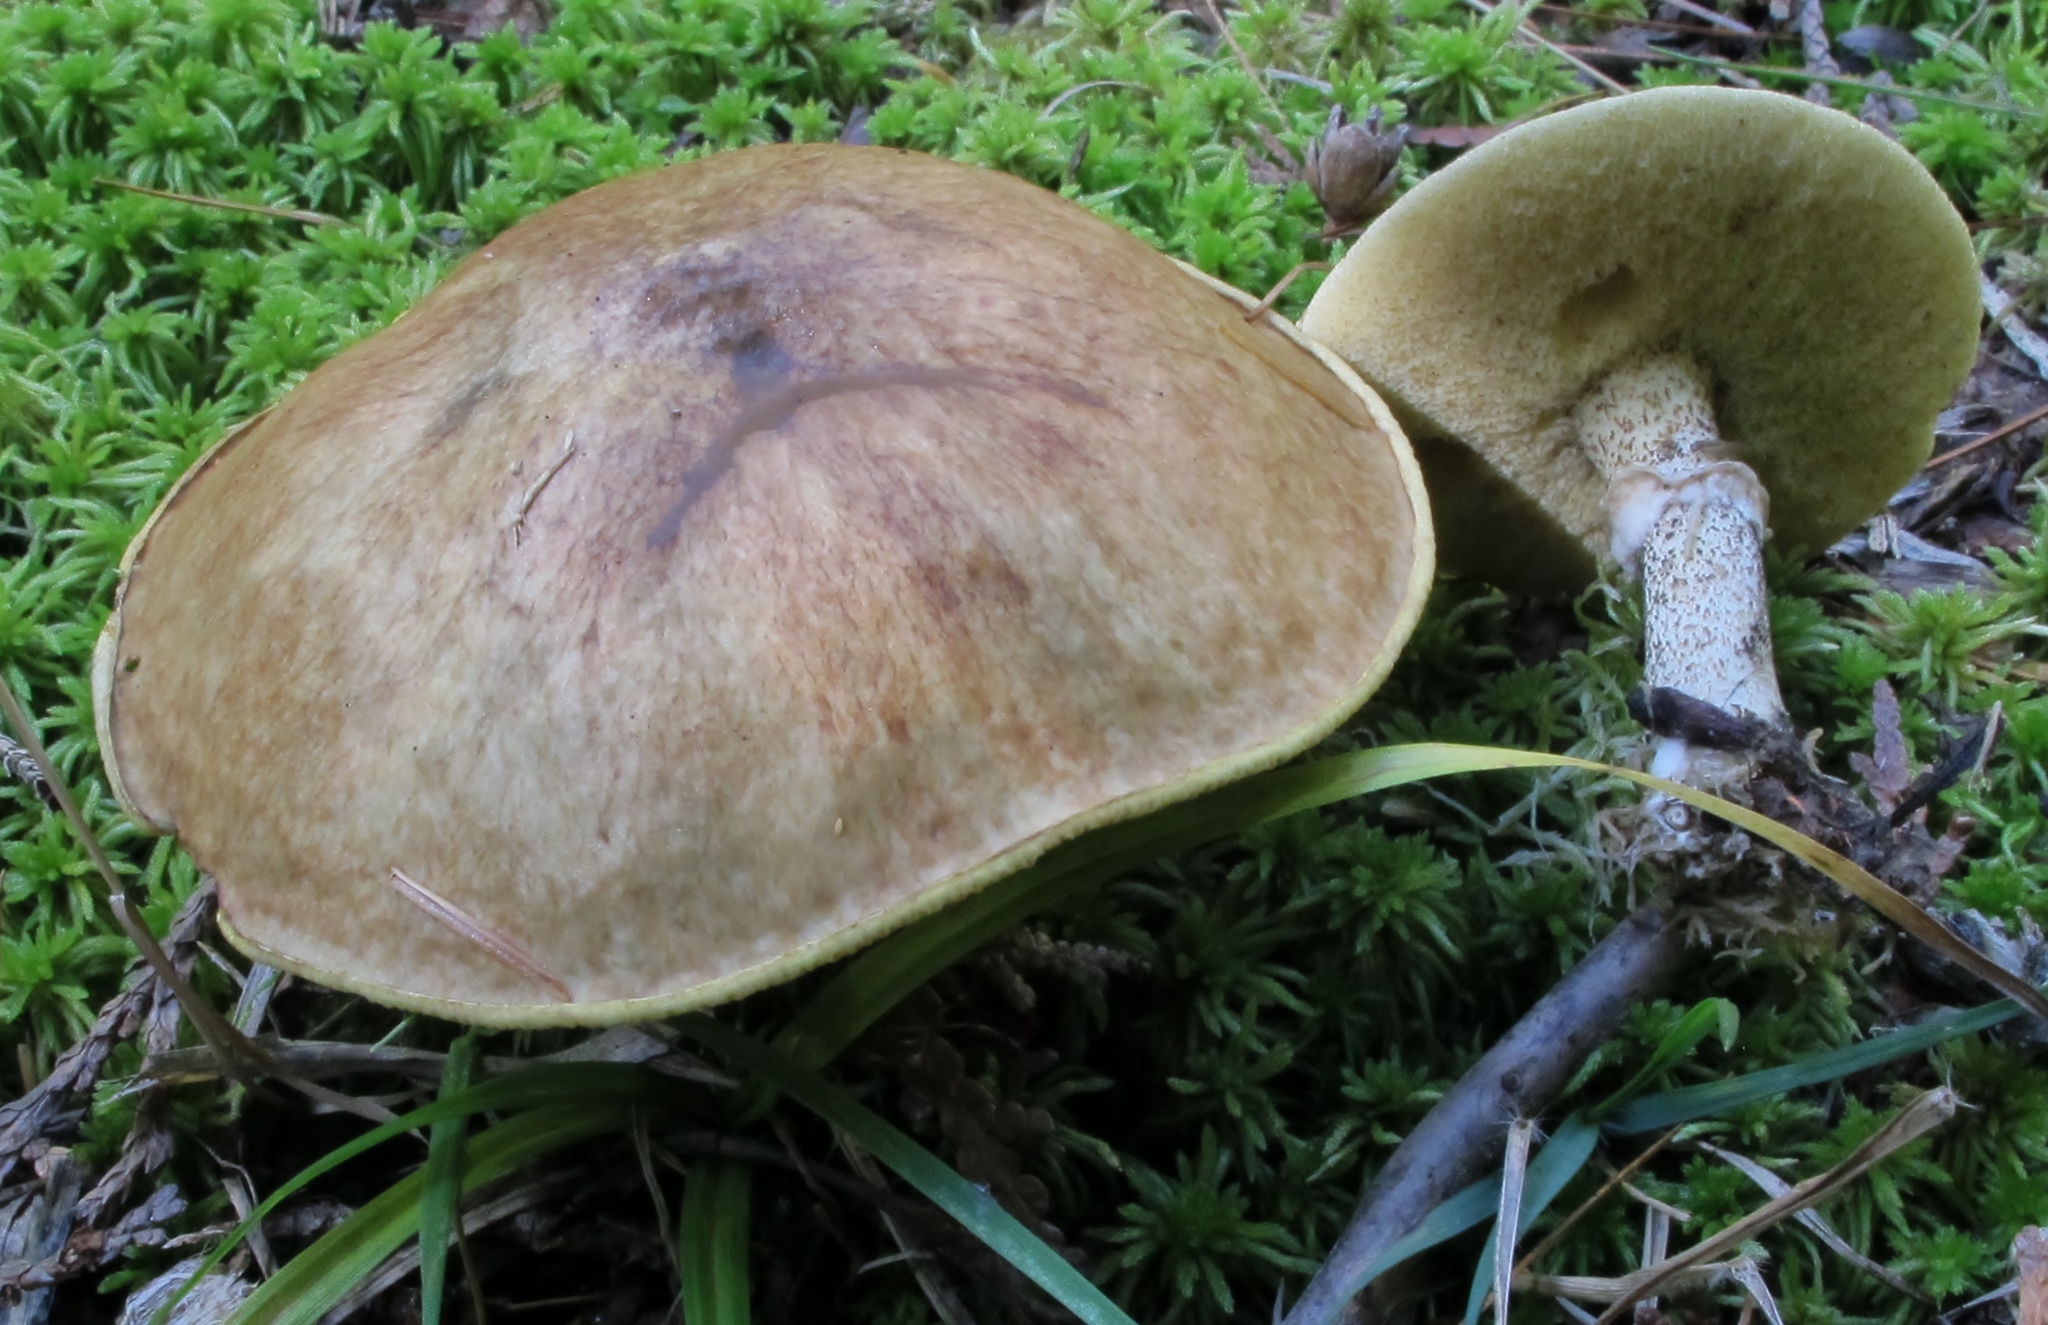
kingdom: Fungi
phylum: Basidiomycota
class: Agaricomycetes
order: Boletales
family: Suillaceae
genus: Suillus
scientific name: Suillus acidus
